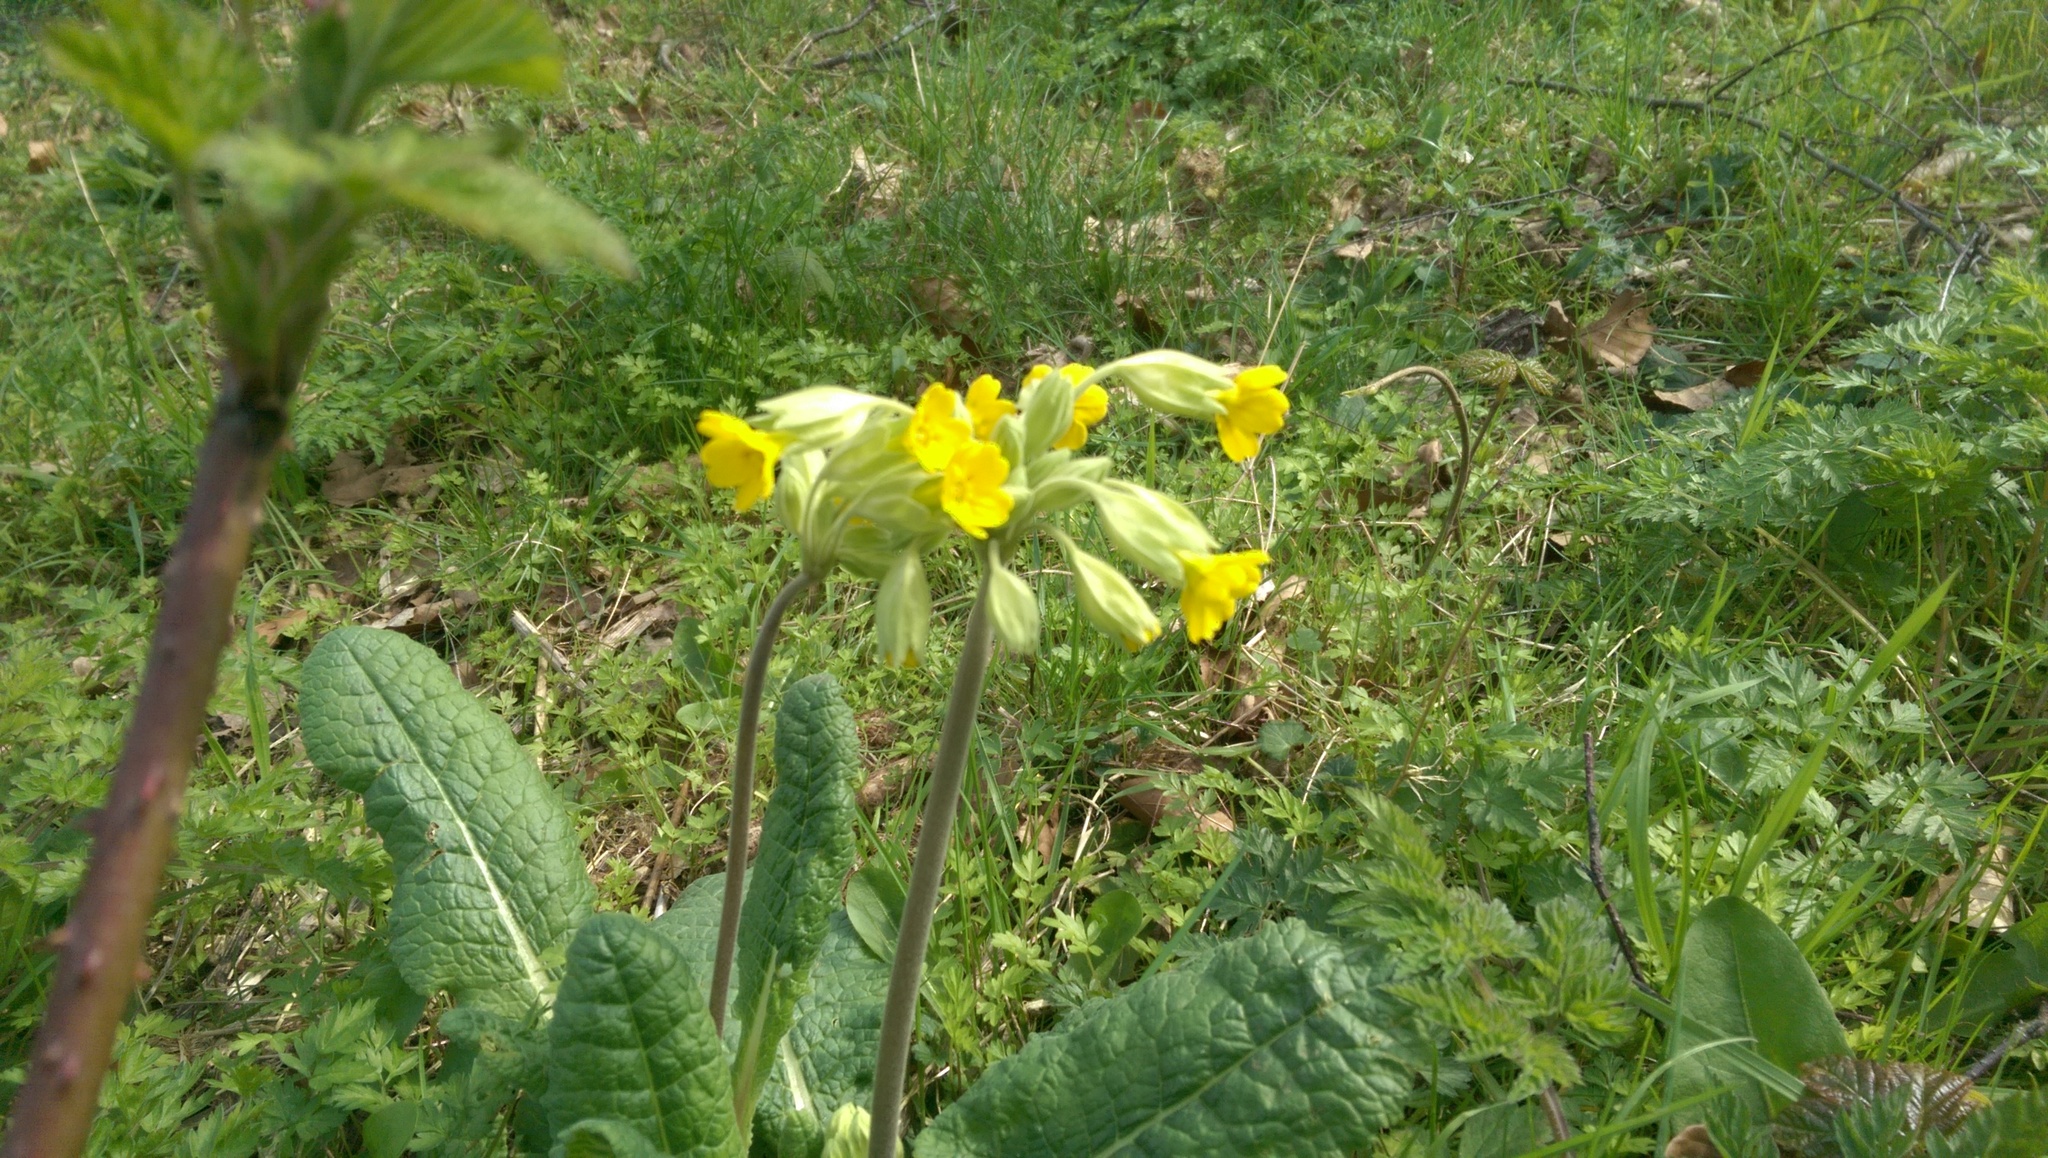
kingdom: Plantae
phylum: Tracheophyta
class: Magnoliopsida
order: Ericales
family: Primulaceae
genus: Primula
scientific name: Primula veris
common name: Cowslip
